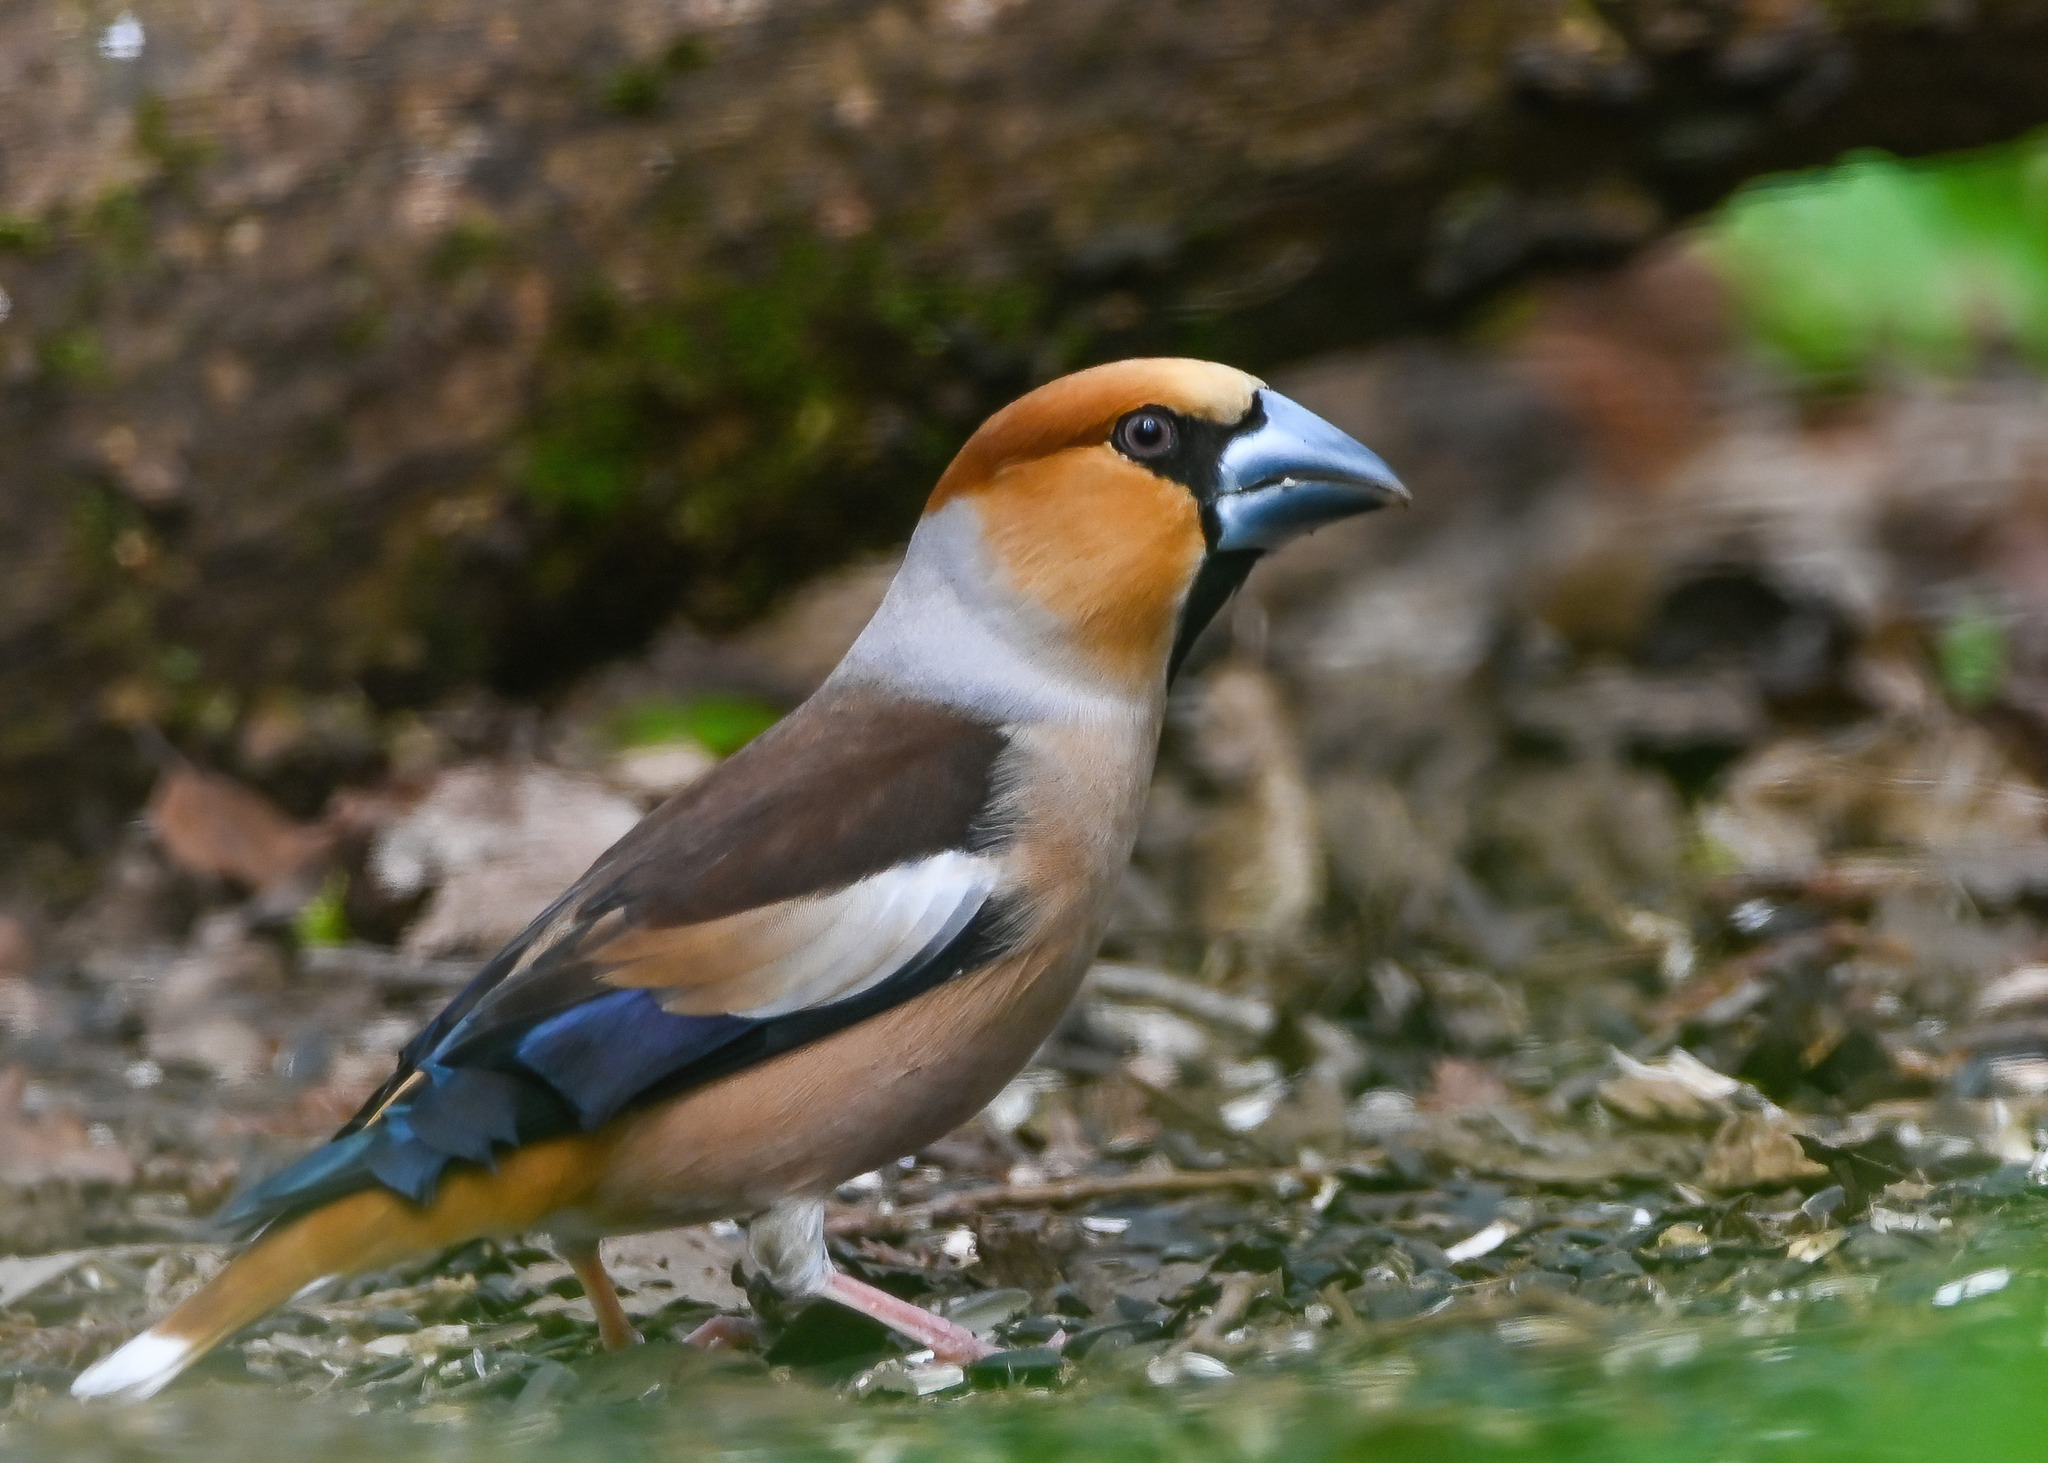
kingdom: Animalia
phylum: Chordata
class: Aves
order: Passeriformes
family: Fringillidae
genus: Coccothraustes
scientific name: Coccothraustes coccothraustes
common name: Hawfinch
